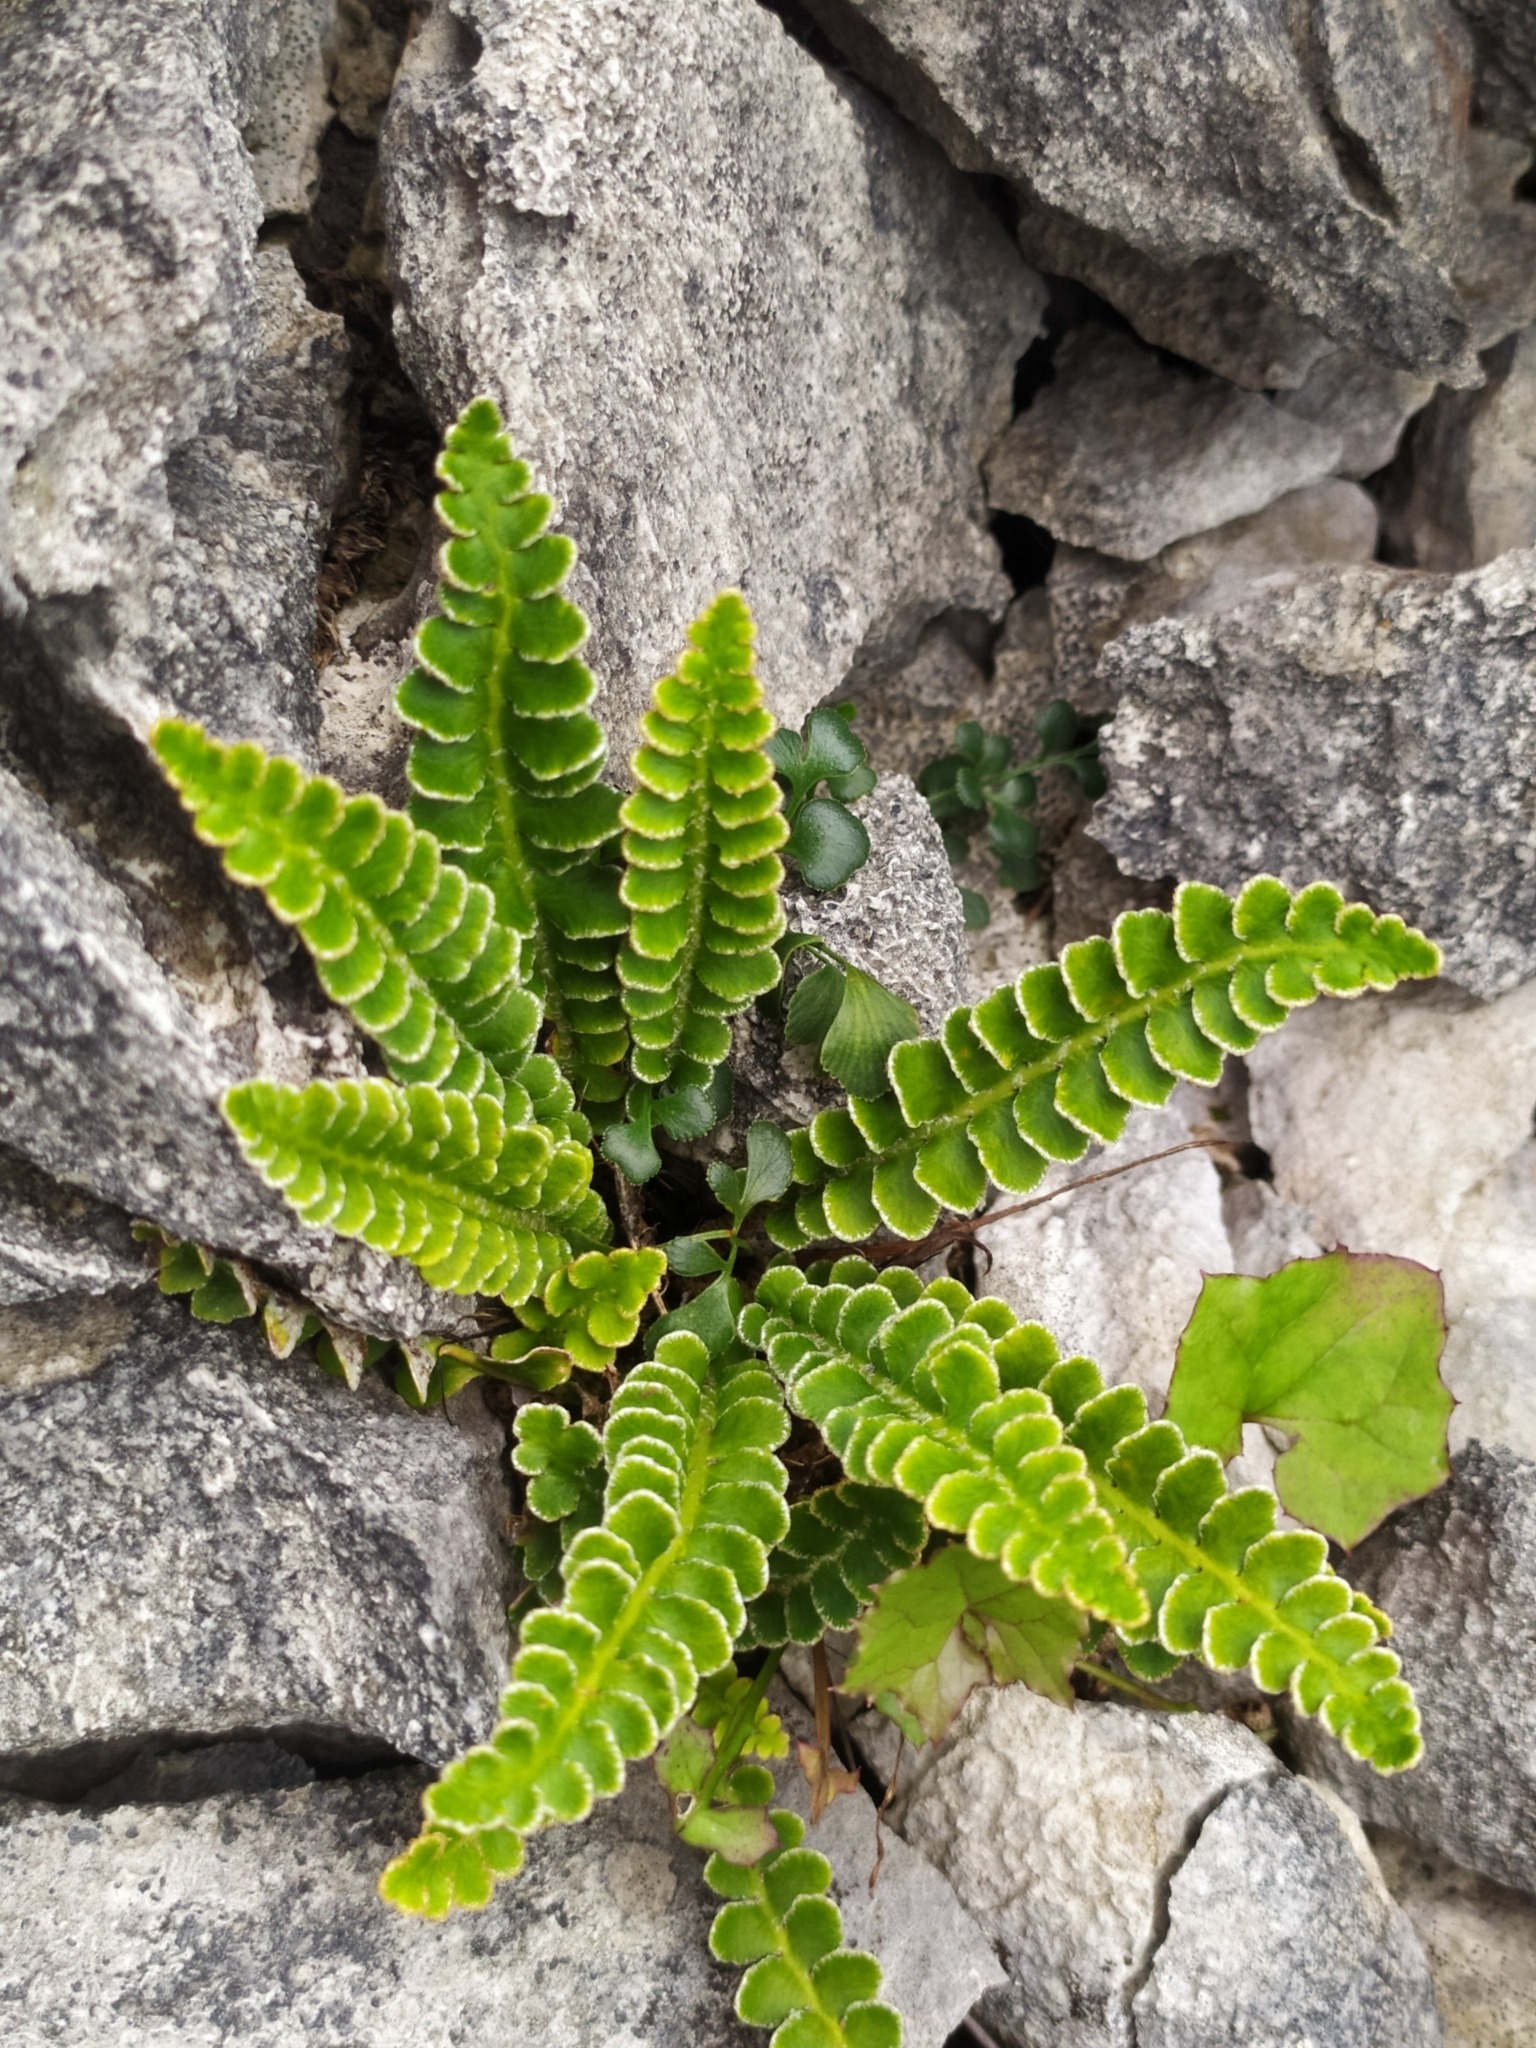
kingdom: Plantae
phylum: Tracheophyta
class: Polypodiopsida
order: Polypodiales
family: Aspleniaceae
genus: Asplenium
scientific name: Asplenium ceterach
